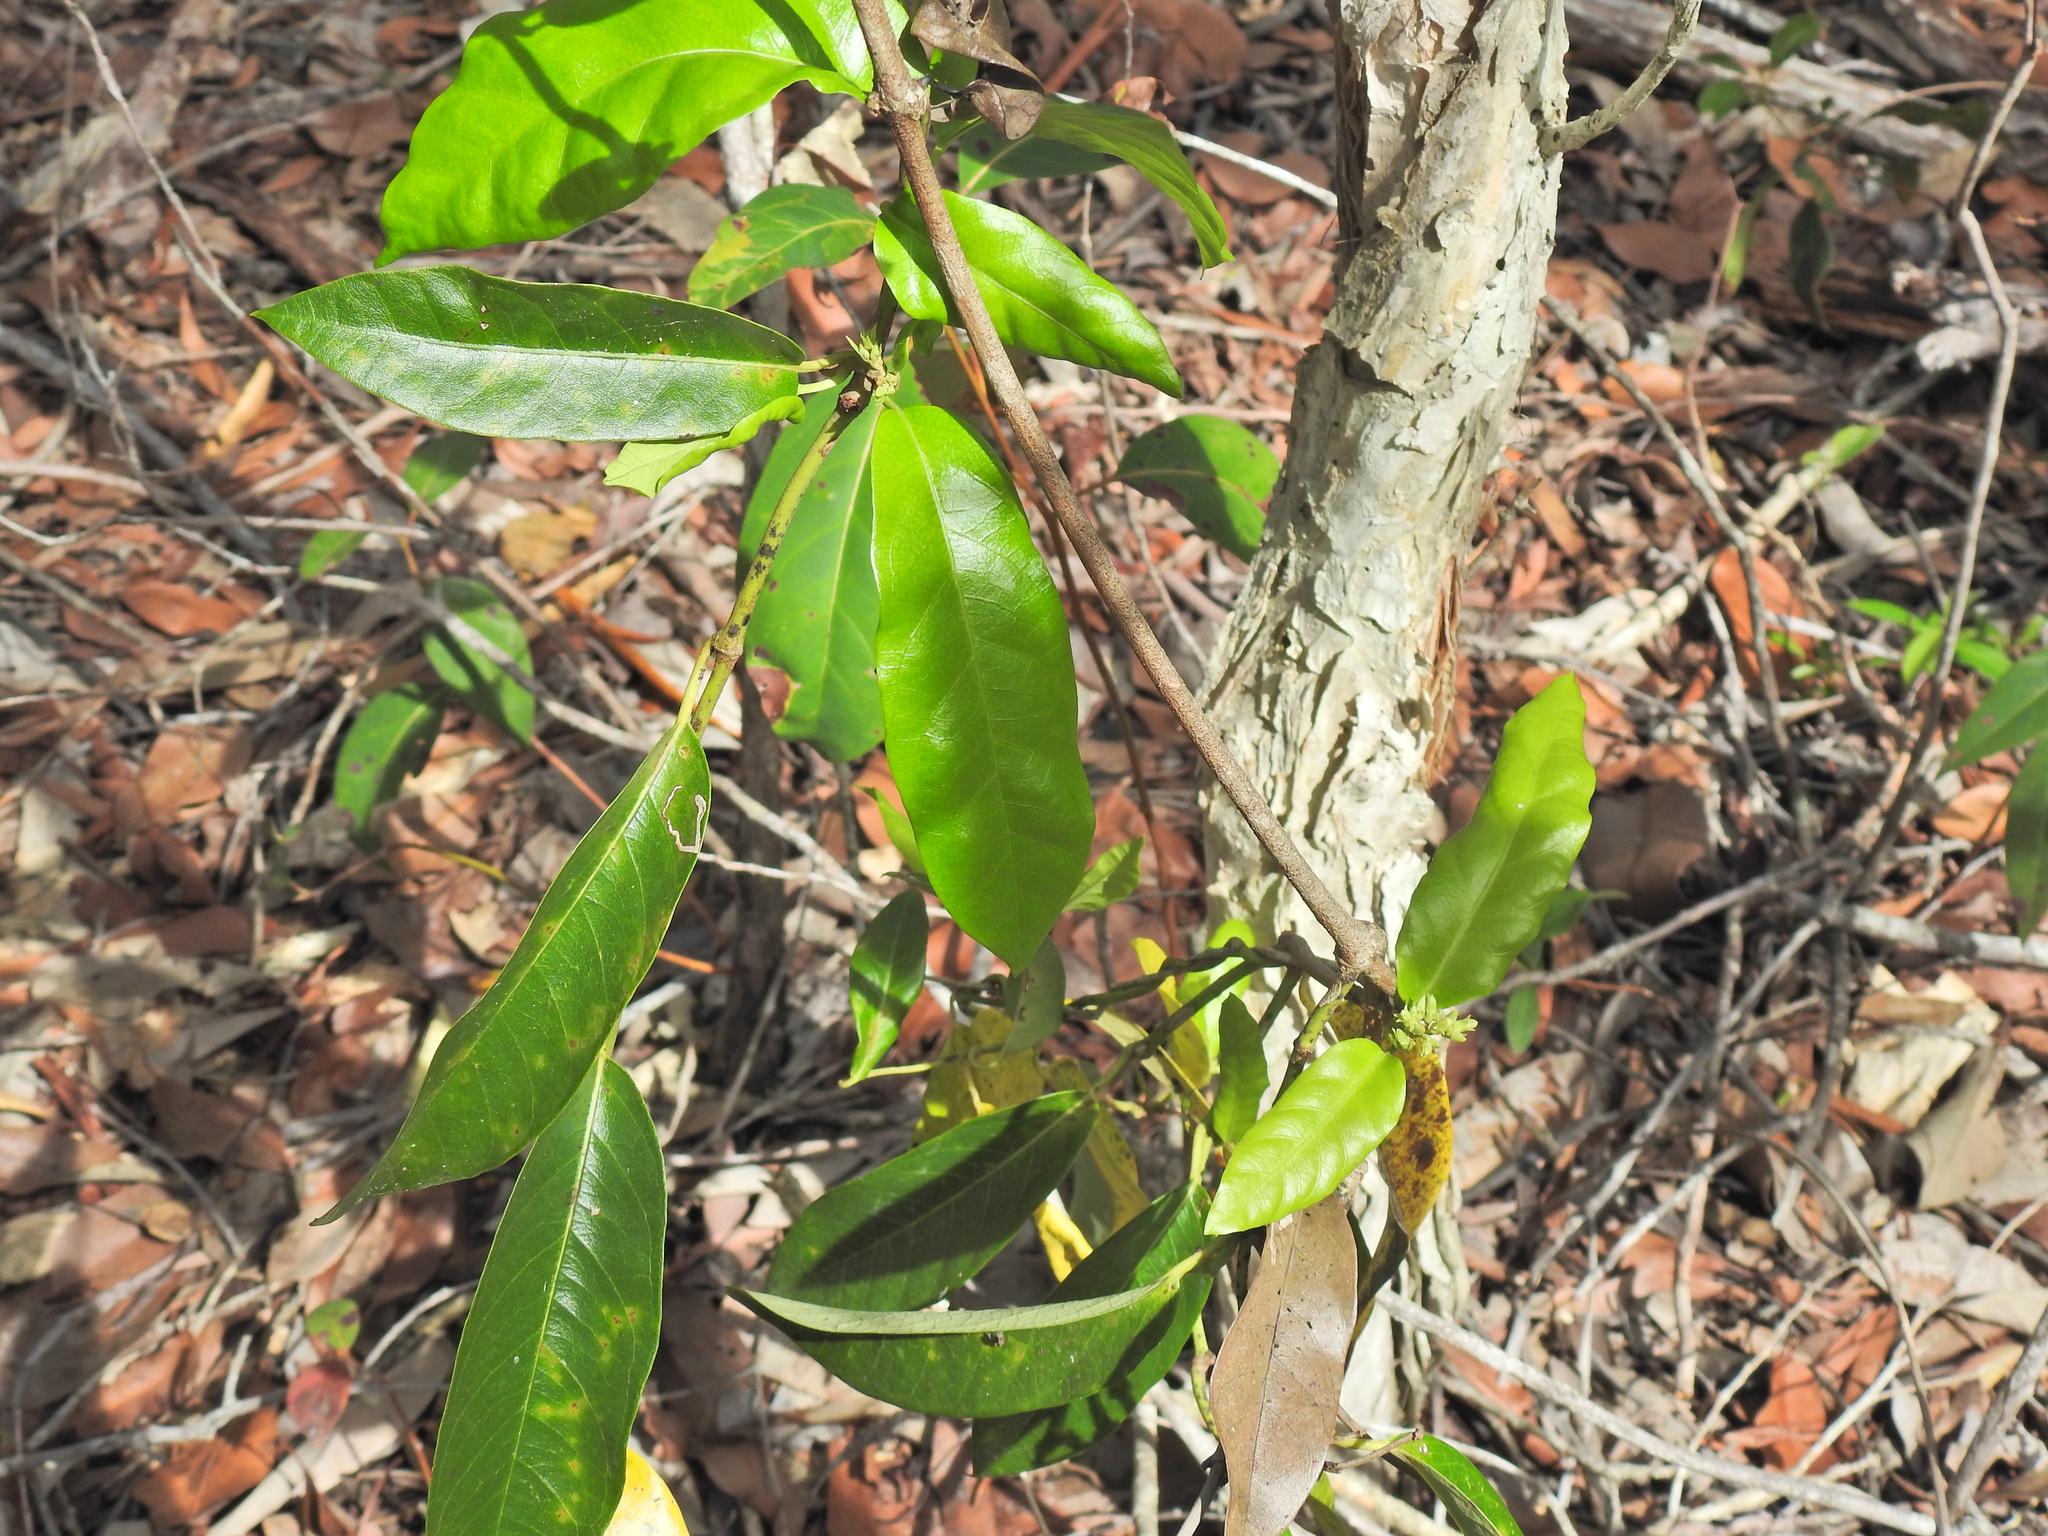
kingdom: Plantae
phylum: Tracheophyta
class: Magnoliopsida
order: Gentianales
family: Apocynaceae
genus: Parsonsia
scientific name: Parsonsia straminea
